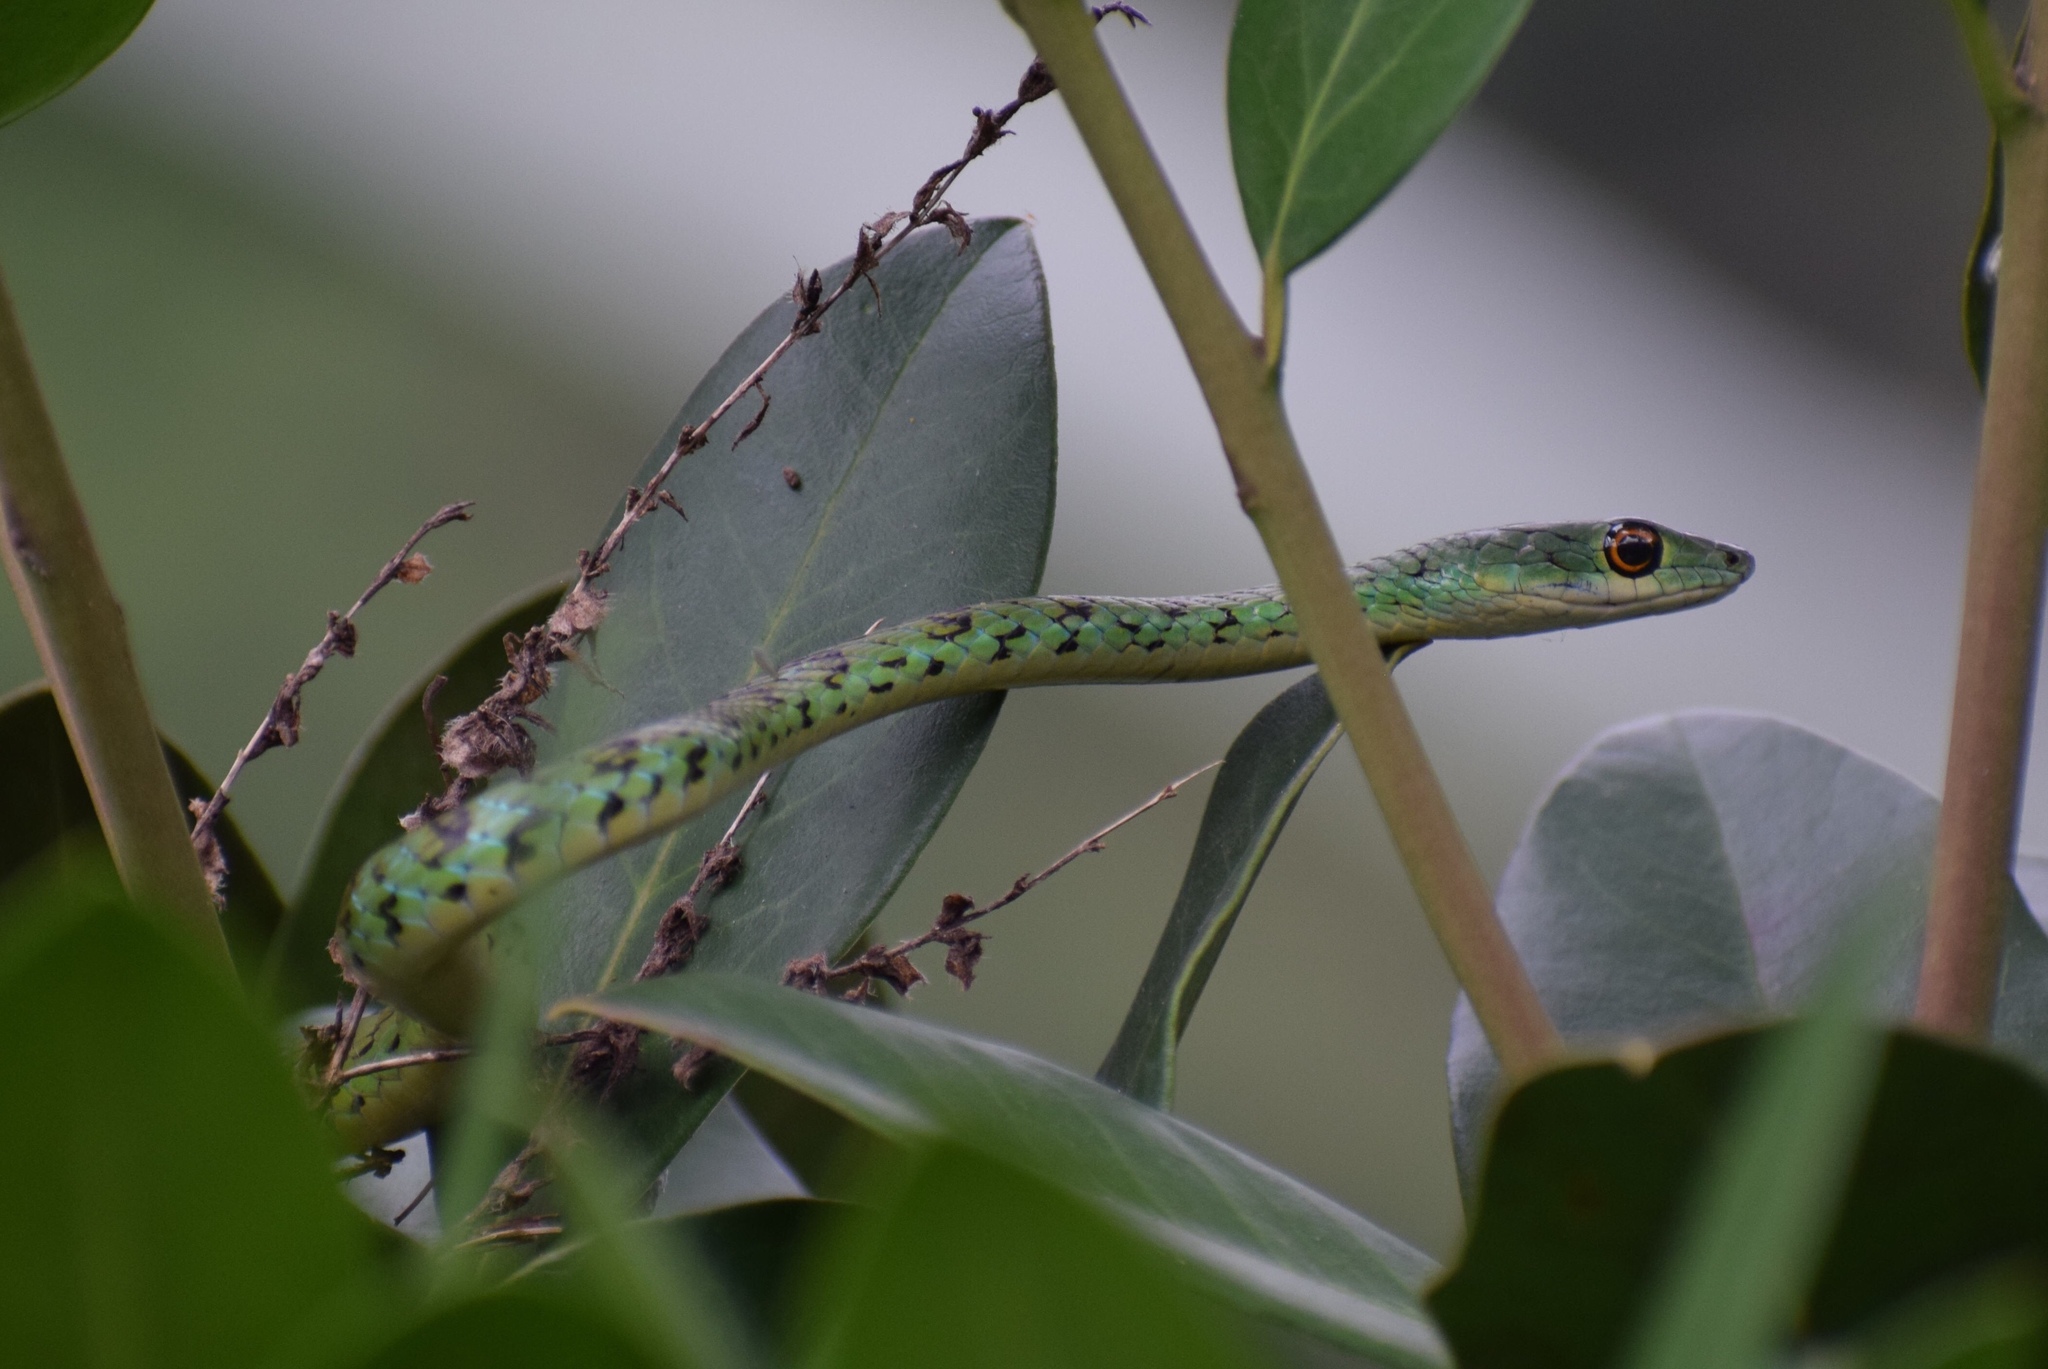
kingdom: Animalia
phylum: Chordata
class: Squamata
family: Colubridae
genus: Philothamnus
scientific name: Philothamnus semivariegatus
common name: Spotted bush snake
